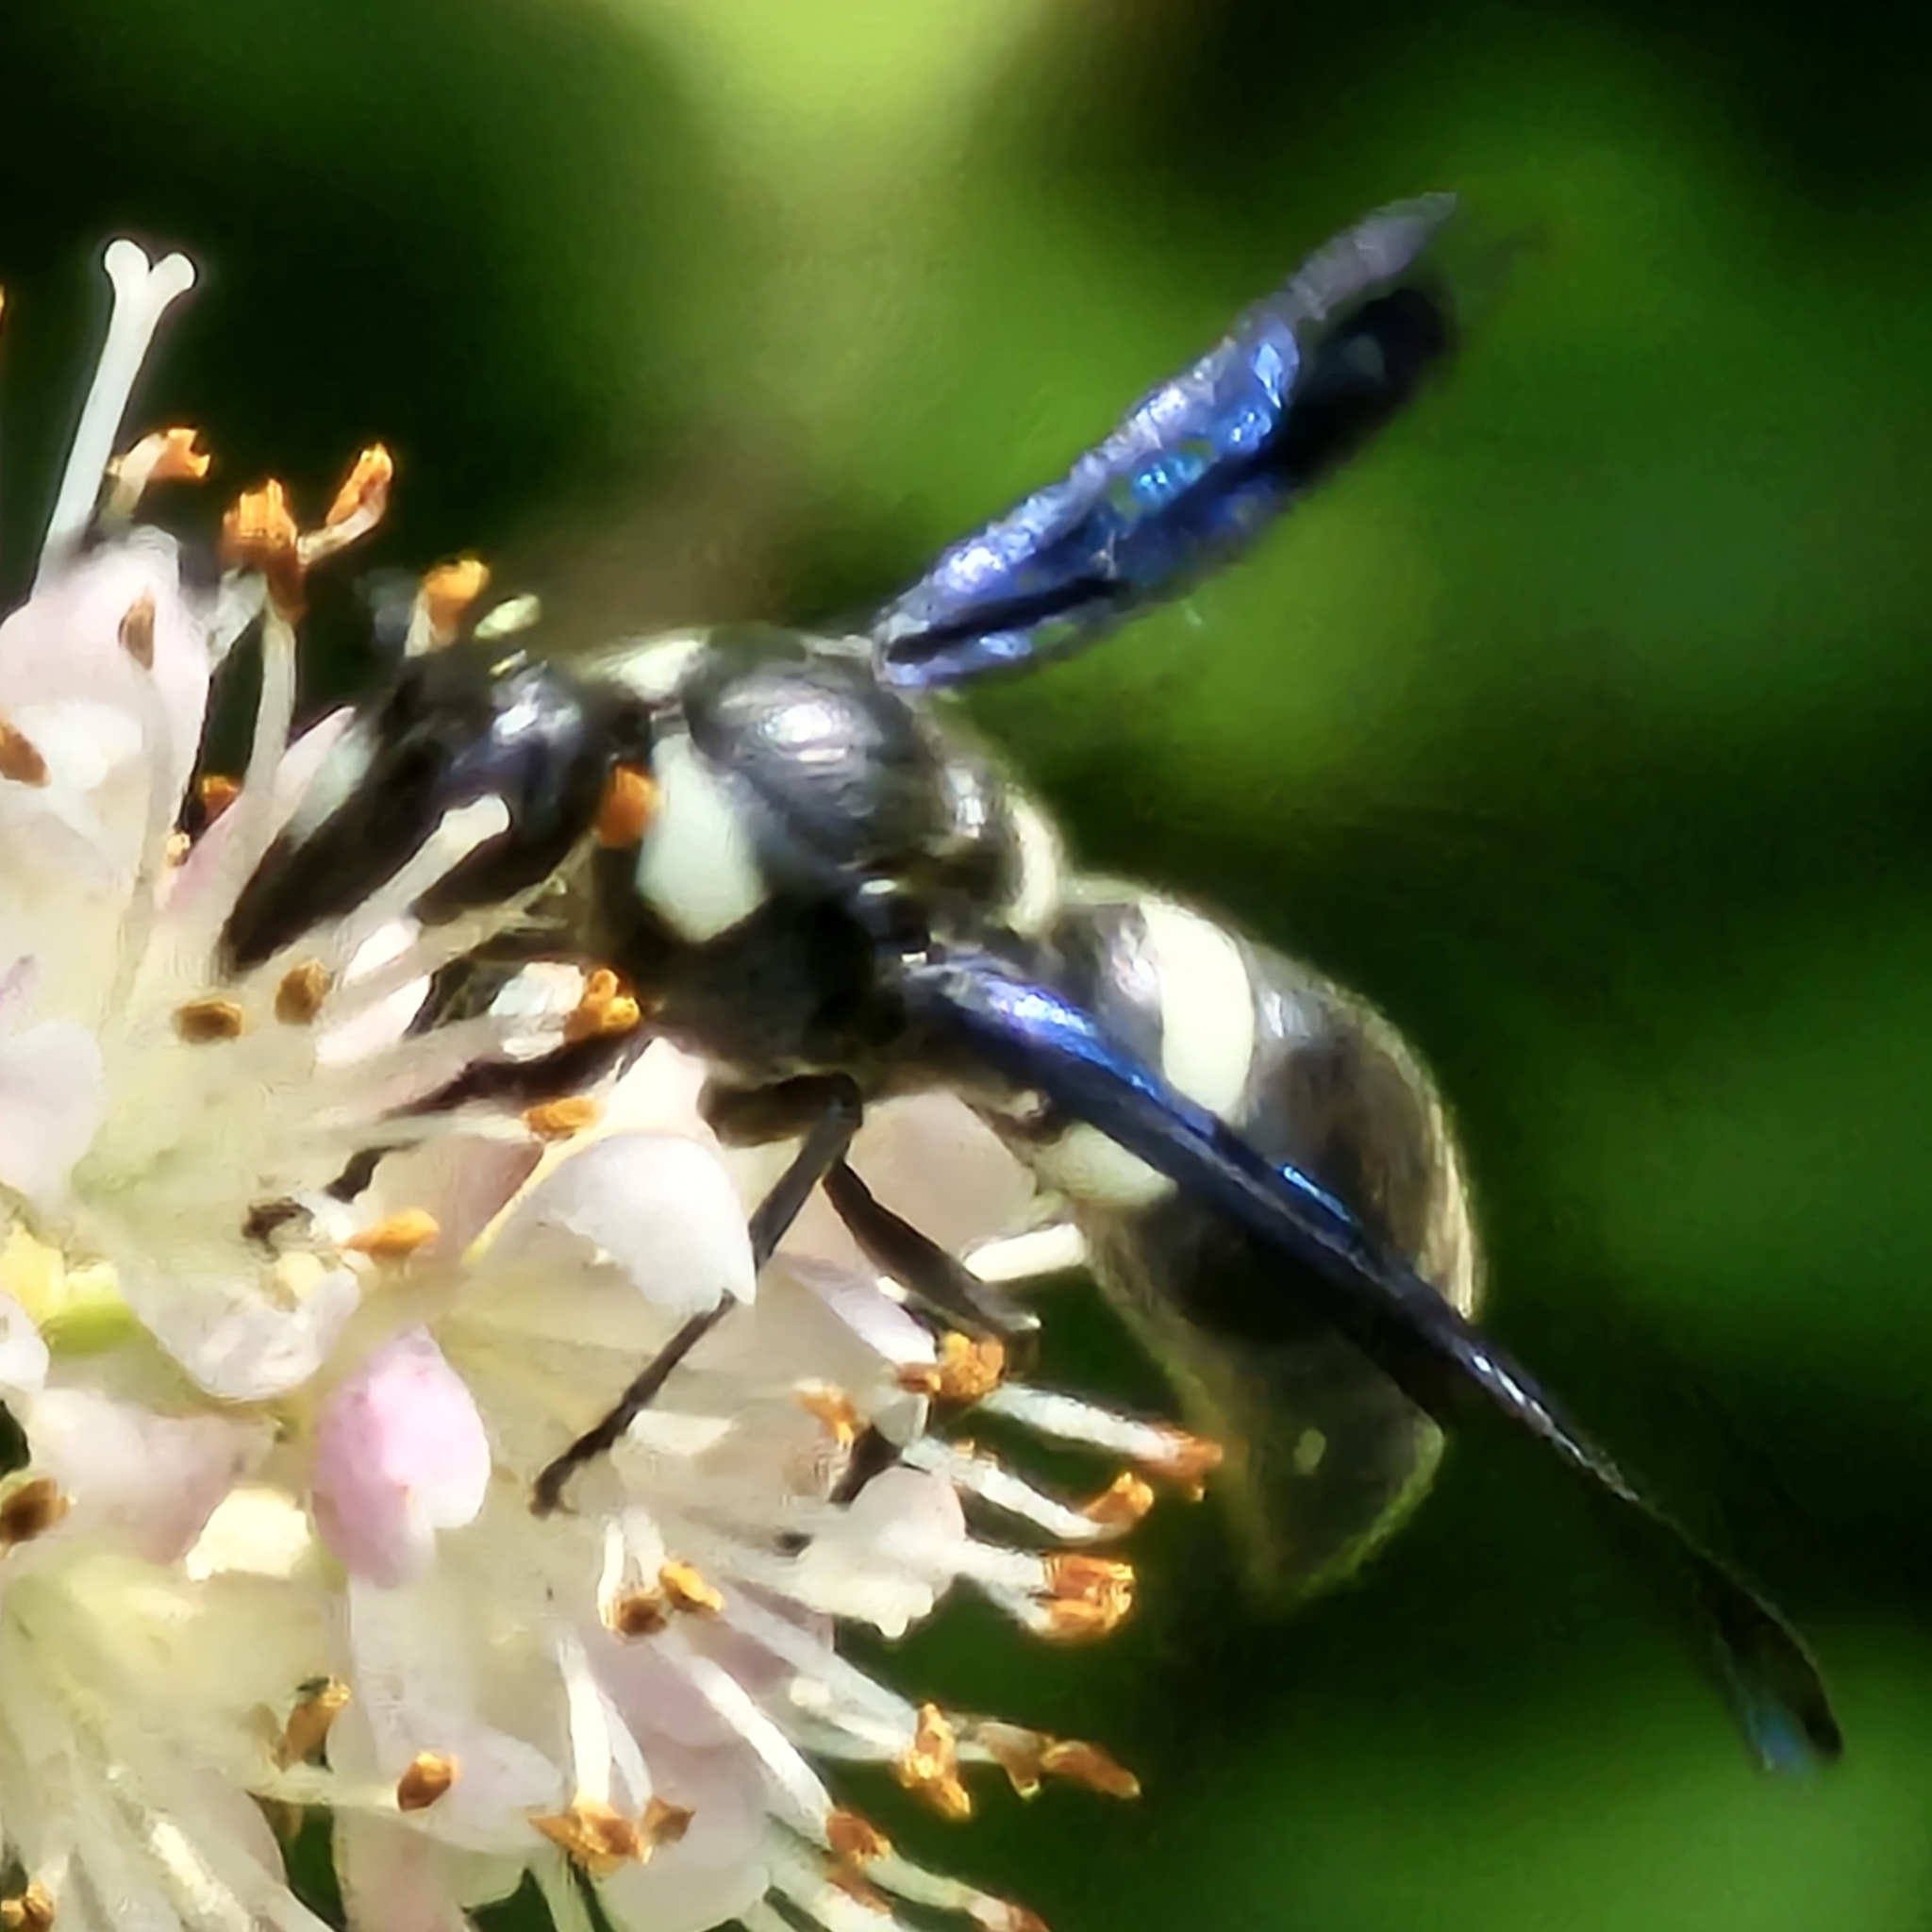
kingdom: Animalia
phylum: Arthropoda
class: Insecta
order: Hymenoptera
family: Eumenidae
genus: Monobia
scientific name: Monobia quadridens
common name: Four-toothed mason wasp
